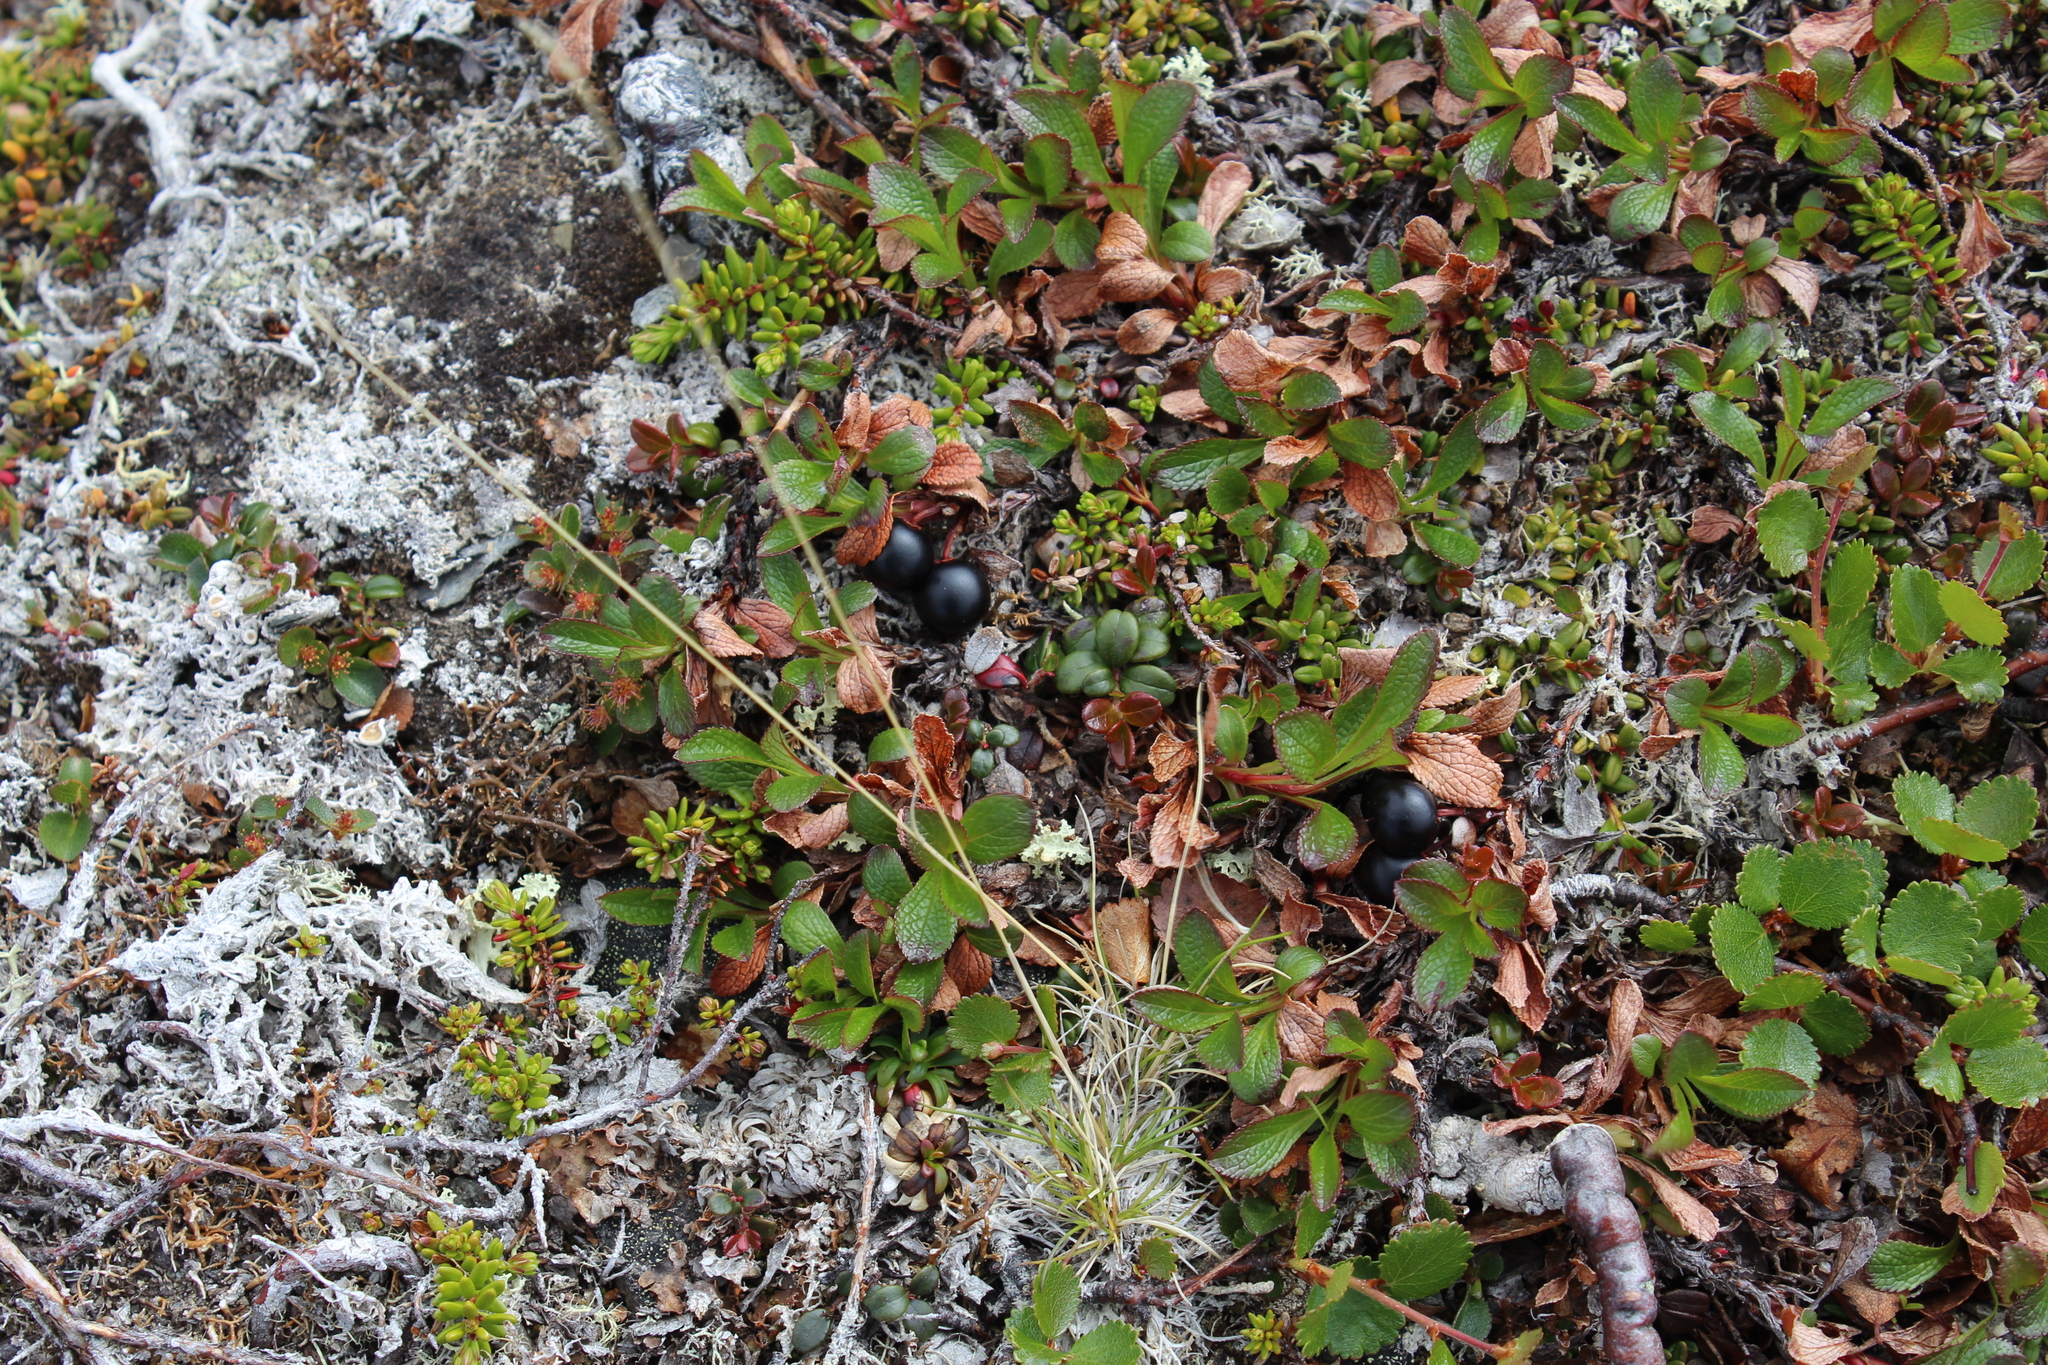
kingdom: Plantae
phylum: Tracheophyta
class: Magnoliopsida
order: Ericales
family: Ericaceae
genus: Arctostaphylos
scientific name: Arctostaphylos alpinus
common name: Alpine bearberry
